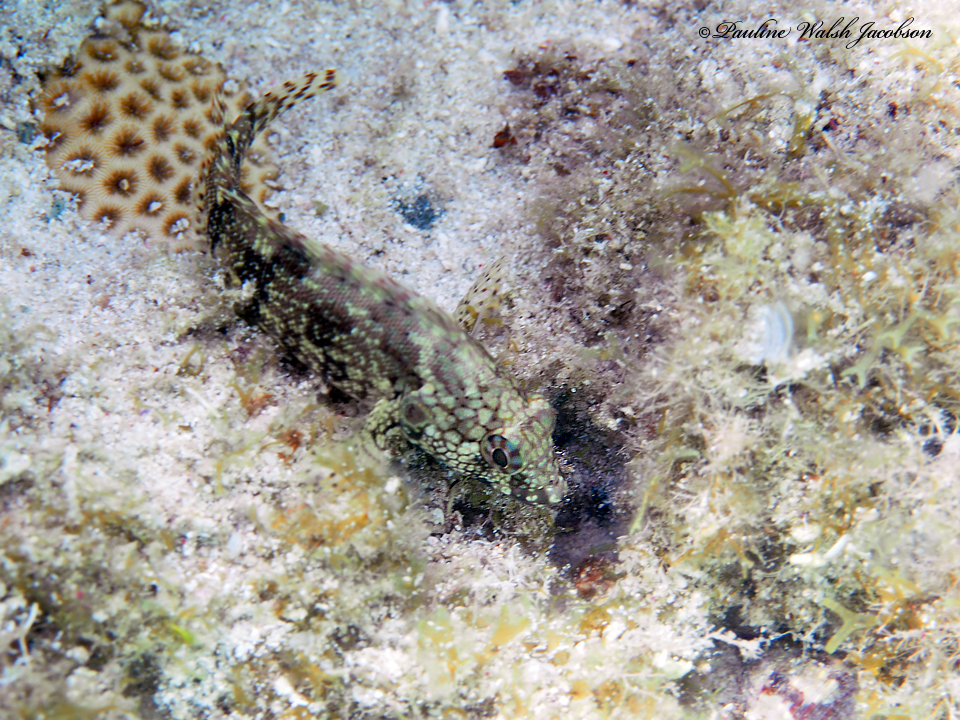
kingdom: Animalia
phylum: Chordata
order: Perciformes
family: Labrisomidae
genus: Labrisomus
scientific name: Labrisomus nuchipinnis
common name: Hairy blenny
